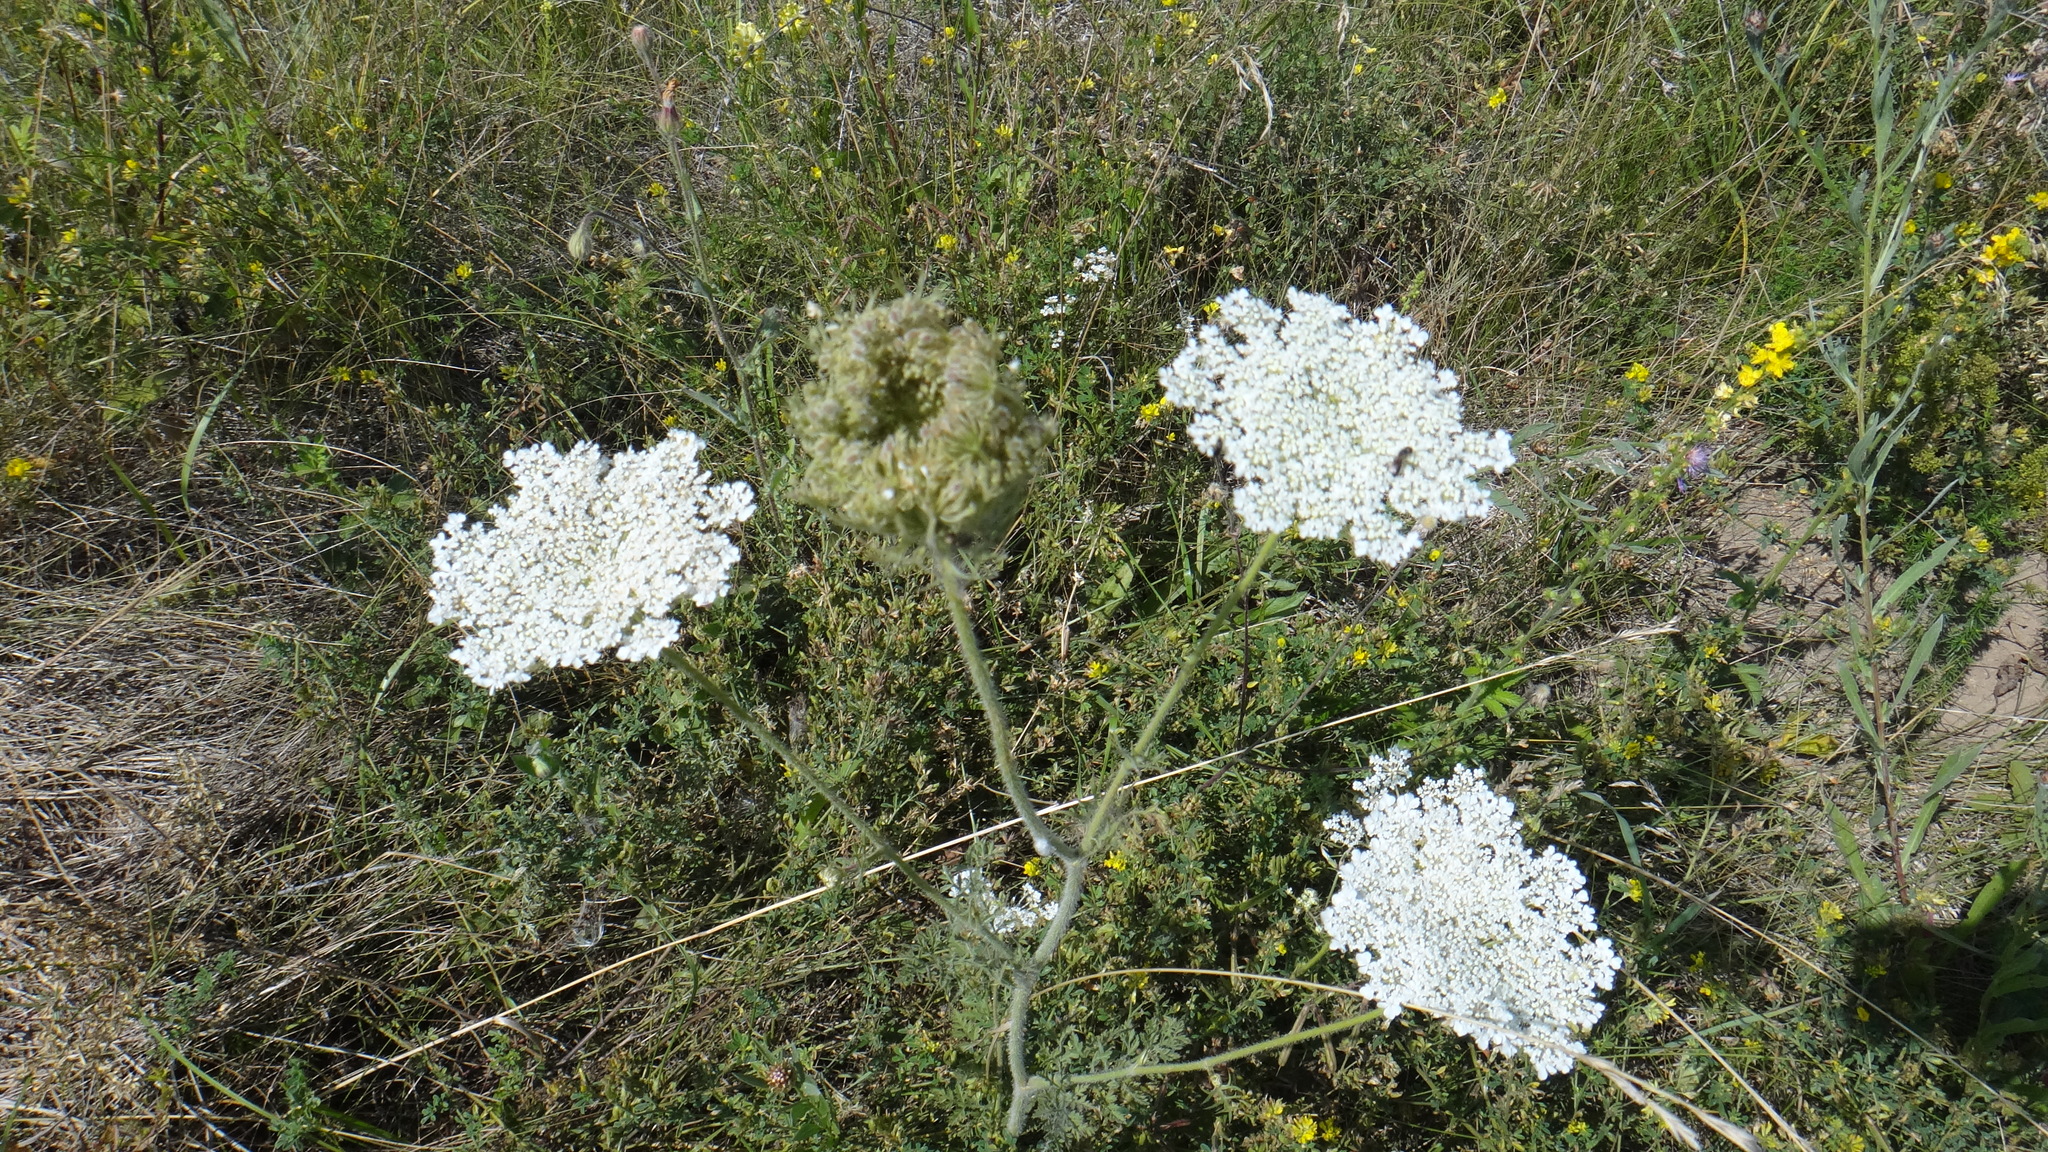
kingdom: Plantae
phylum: Tracheophyta
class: Magnoliopsida
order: Apiales
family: Apiaceae
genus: Daucus
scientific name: Daucus carota
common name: Wild carrot
